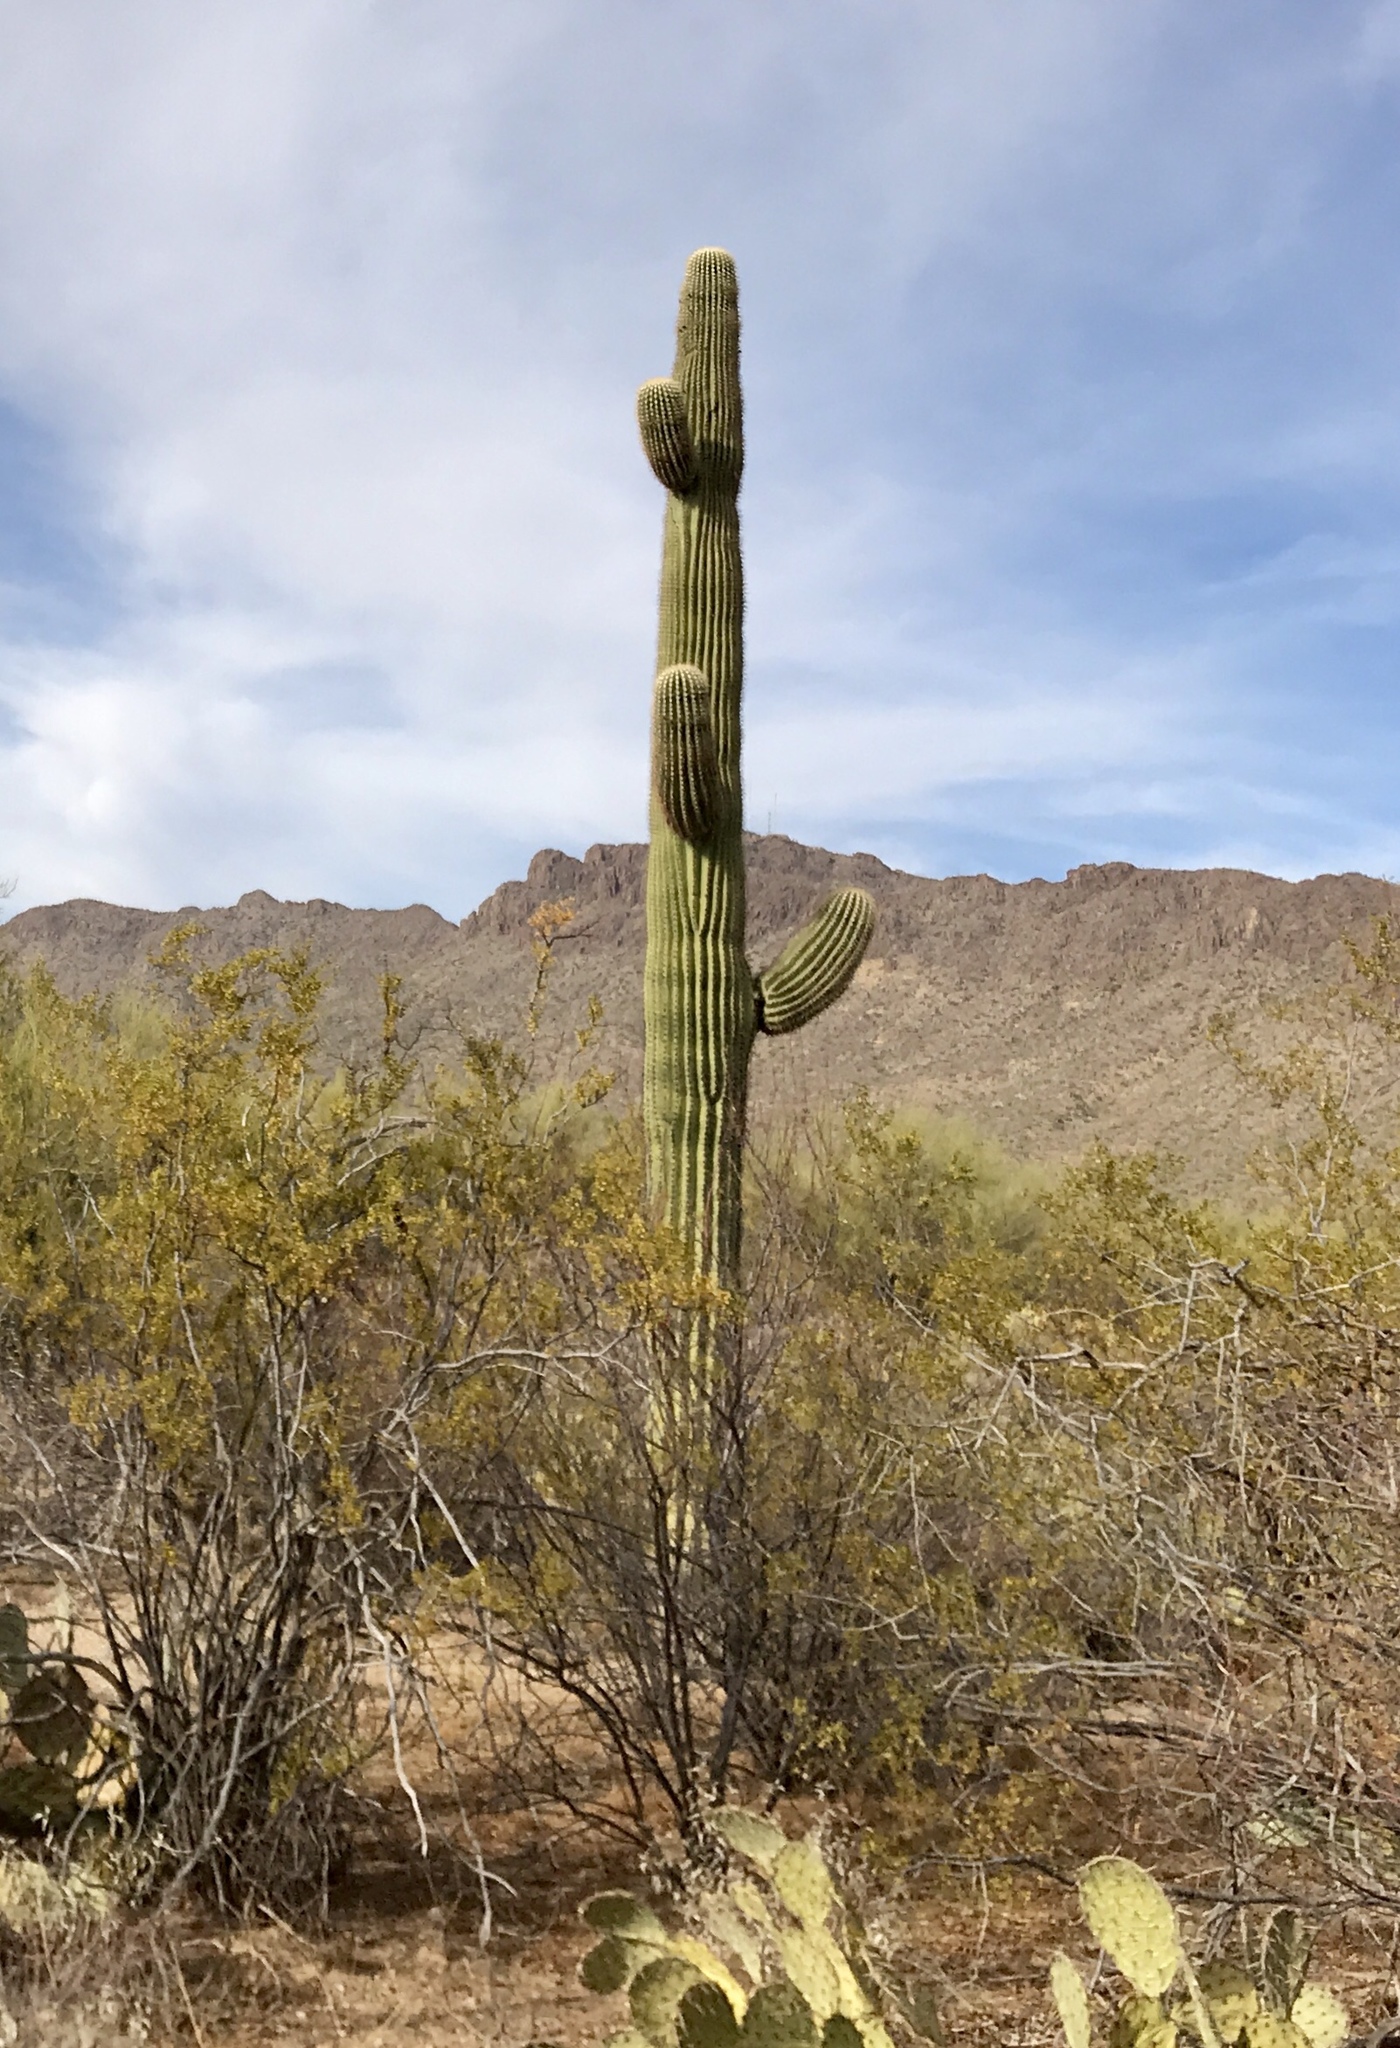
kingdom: Plantae
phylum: Tracheophyta
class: Magnoliopsida
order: Caryophyllales
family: Cactaceae
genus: Carnegiea
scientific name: Carnegiea gigantea
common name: Saguaro
